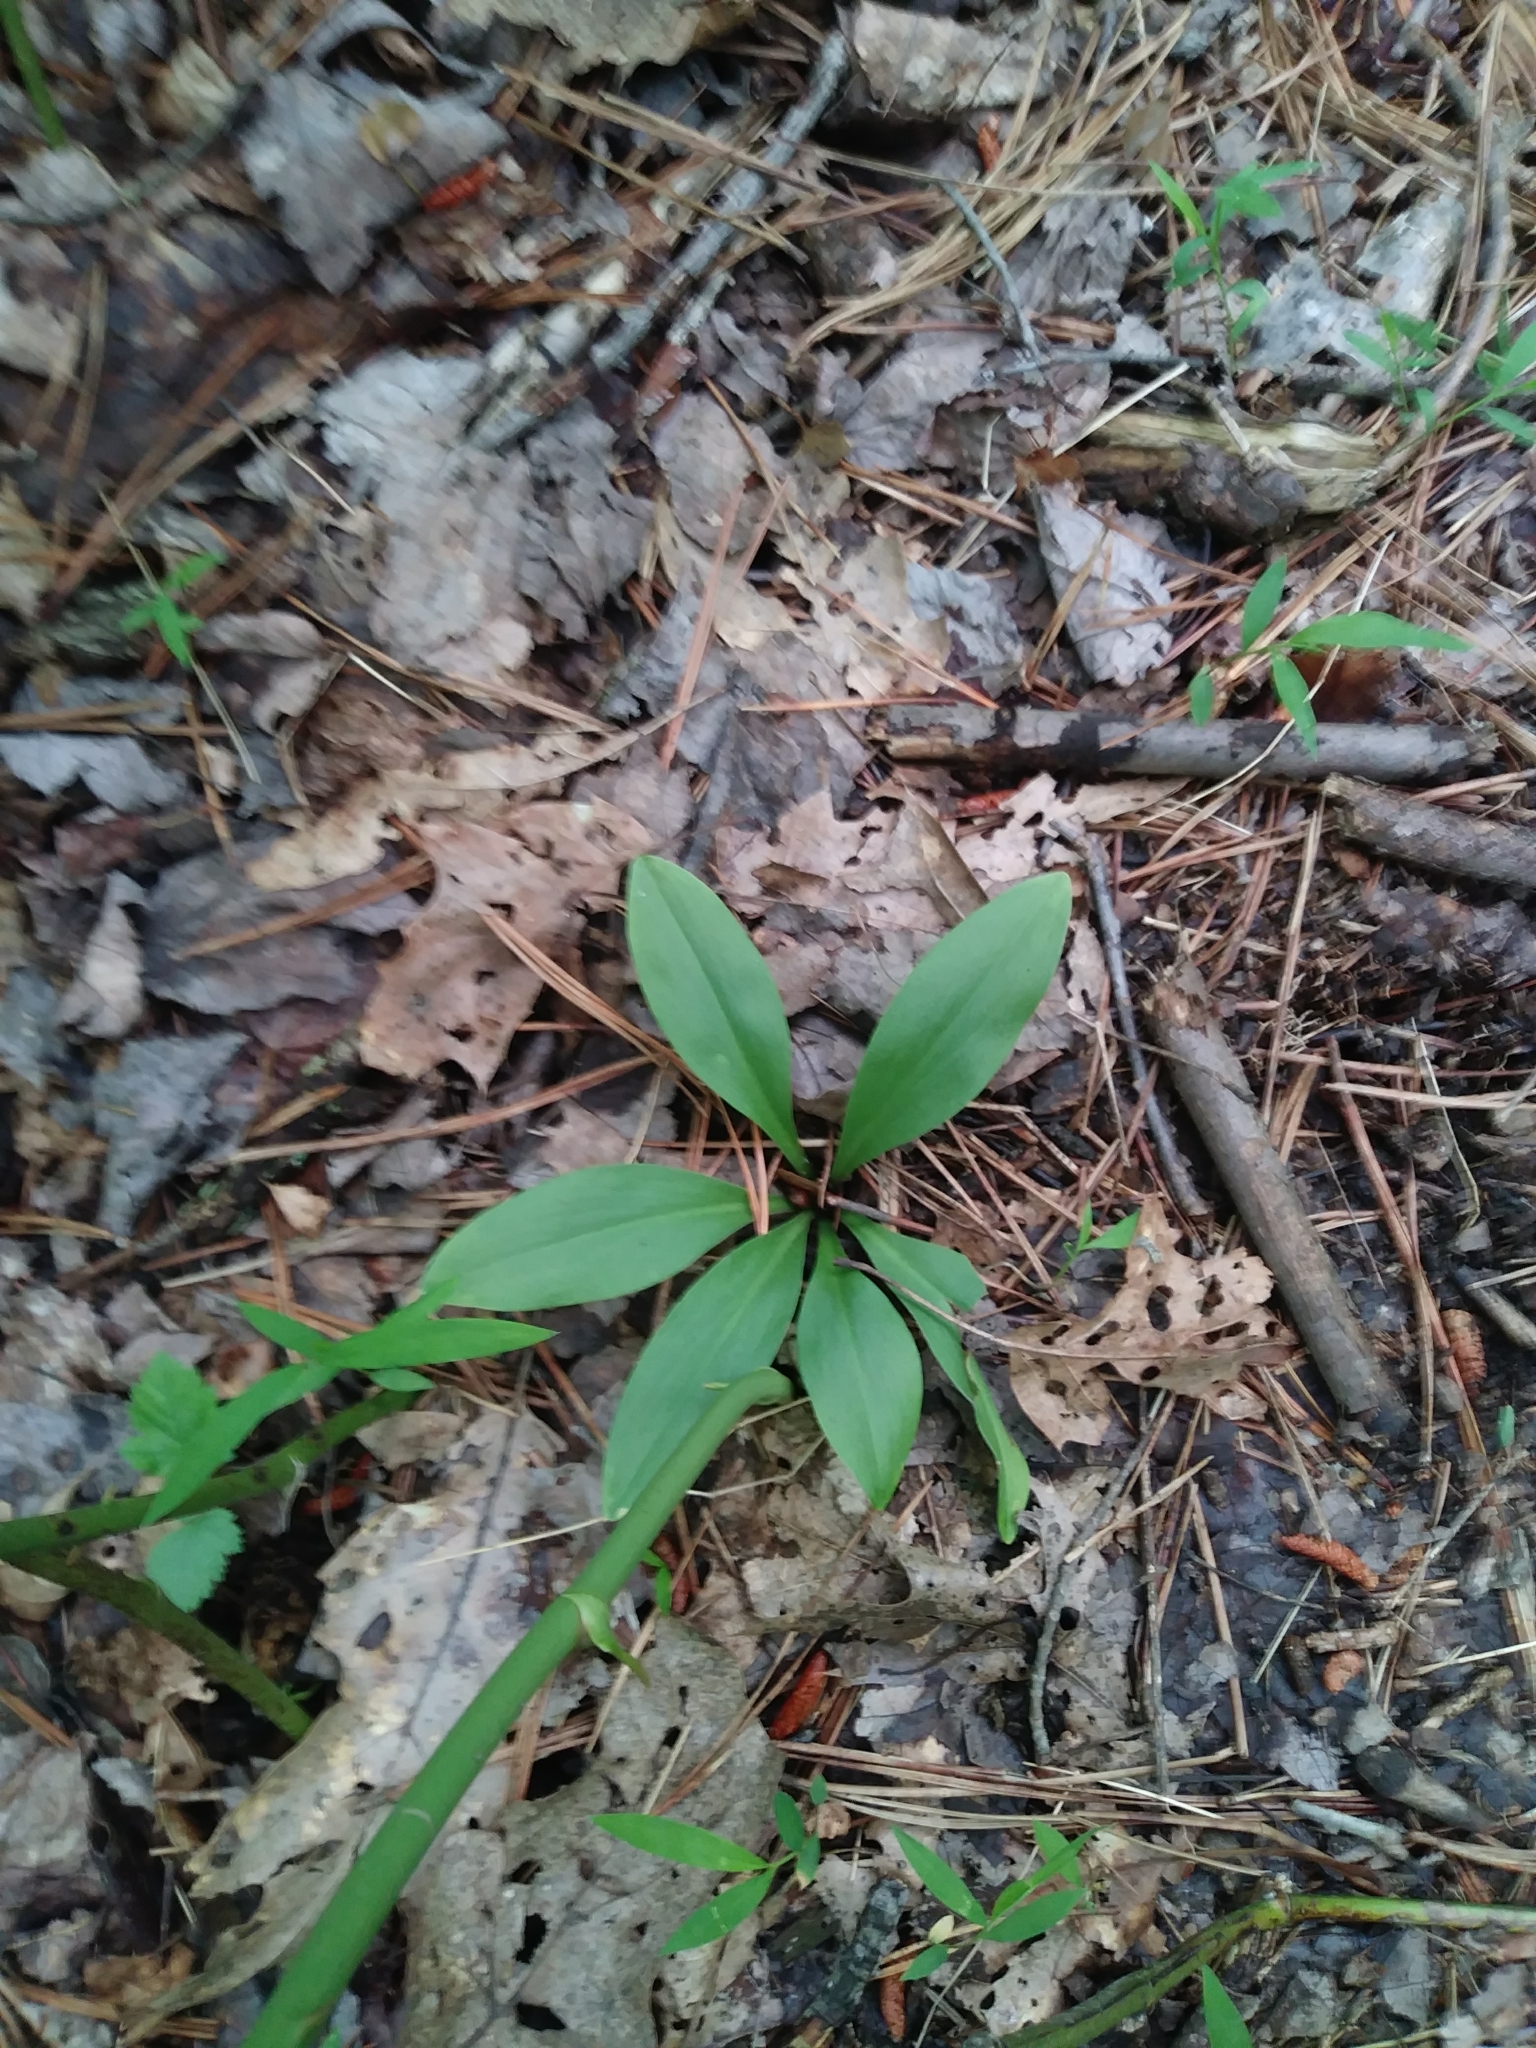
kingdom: Plantae
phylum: Tracheophyta
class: Liliopsida
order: Liliales
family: Melanthiaceae
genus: Chamaelirium
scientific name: Chamaelirium luteum
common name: Fairy-wand
